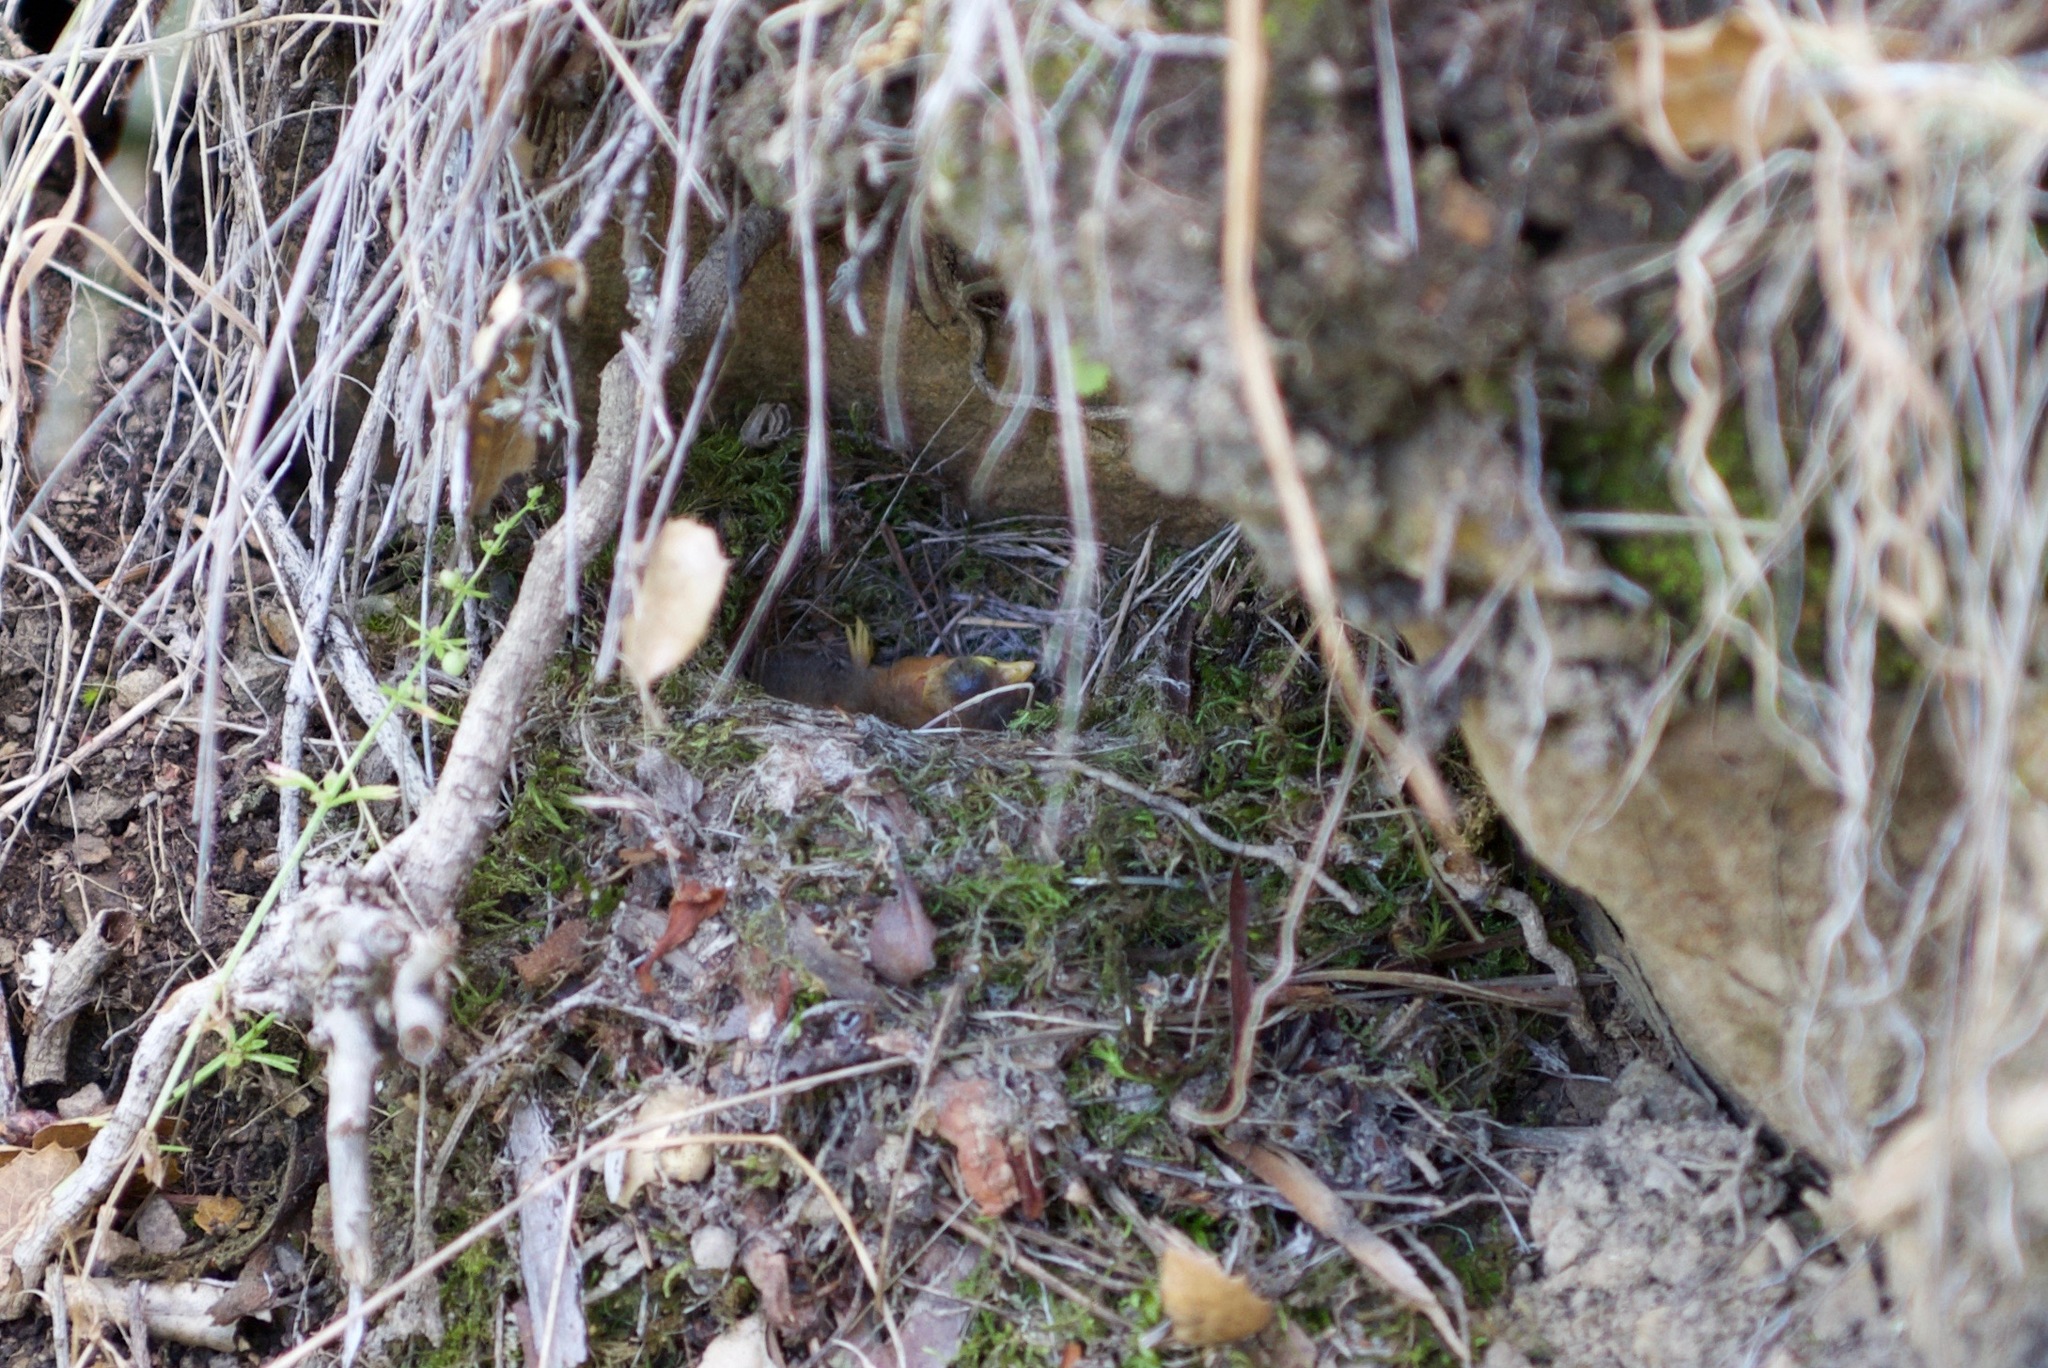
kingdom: Animalia
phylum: Chordata
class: Aves
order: Passeriformes
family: Passerellidae
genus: Junco
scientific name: Junco hyemalis
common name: Dark-eyed junco
